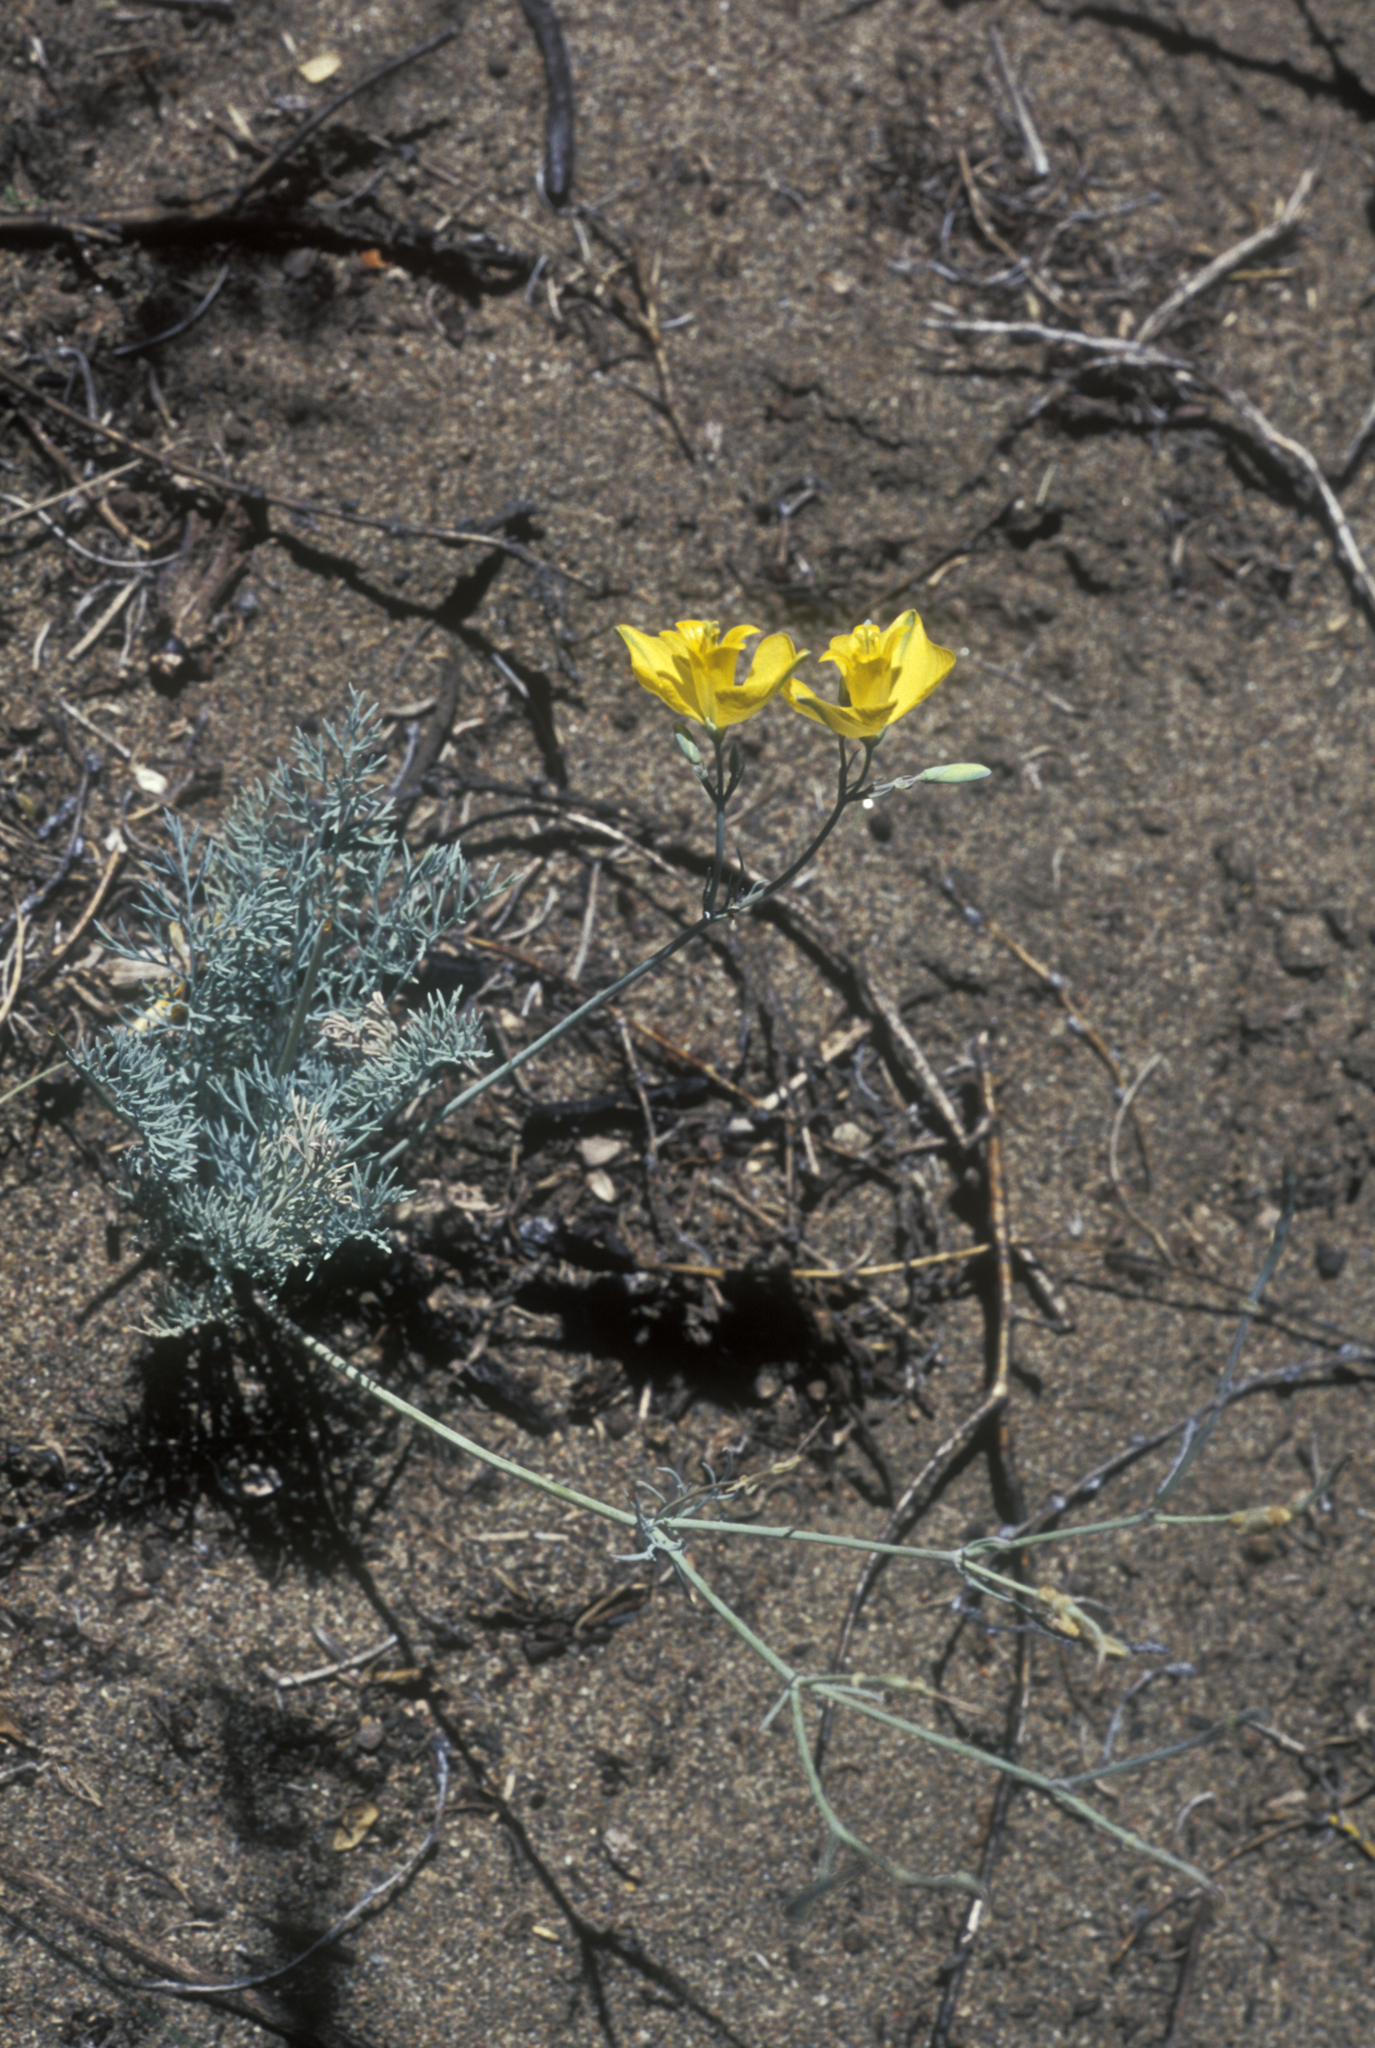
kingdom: Plantae
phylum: Tracheophyta
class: Magnoliopsida
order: Ranunculales
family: Papaveraceae
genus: Hypecoum
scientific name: Hypecoum erectum
